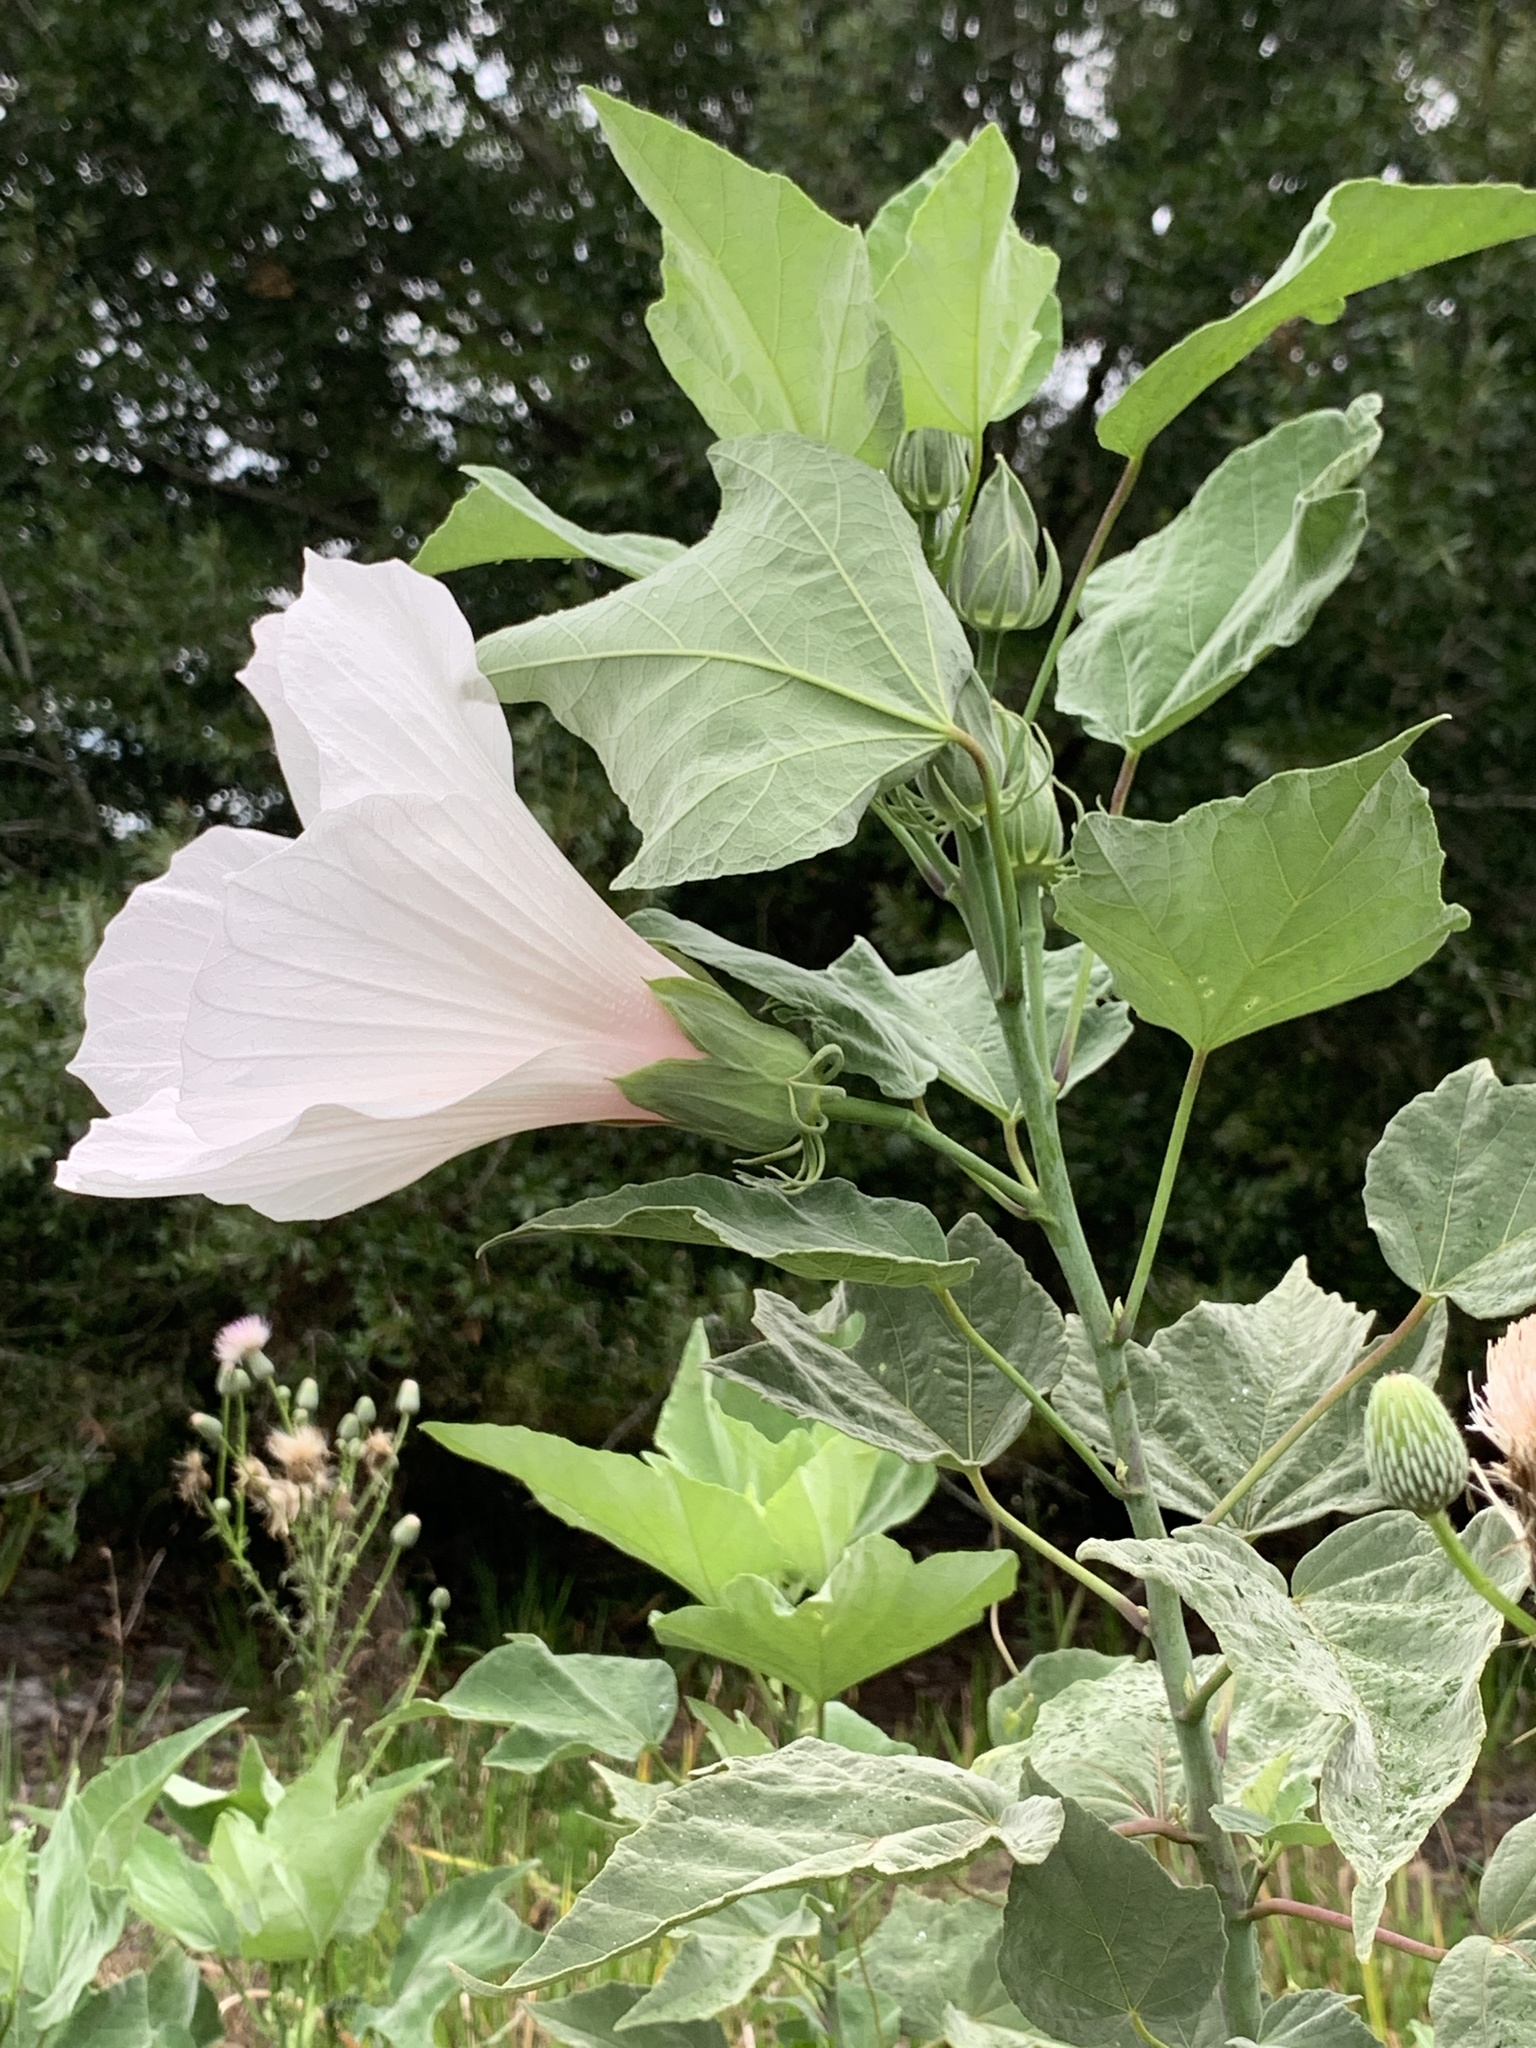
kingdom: Plantae
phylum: Tracheophyta
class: Magnoliopsida
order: Malvales
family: Malvaceae
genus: Hibiscus
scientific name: Hibiscus grandiflorus
